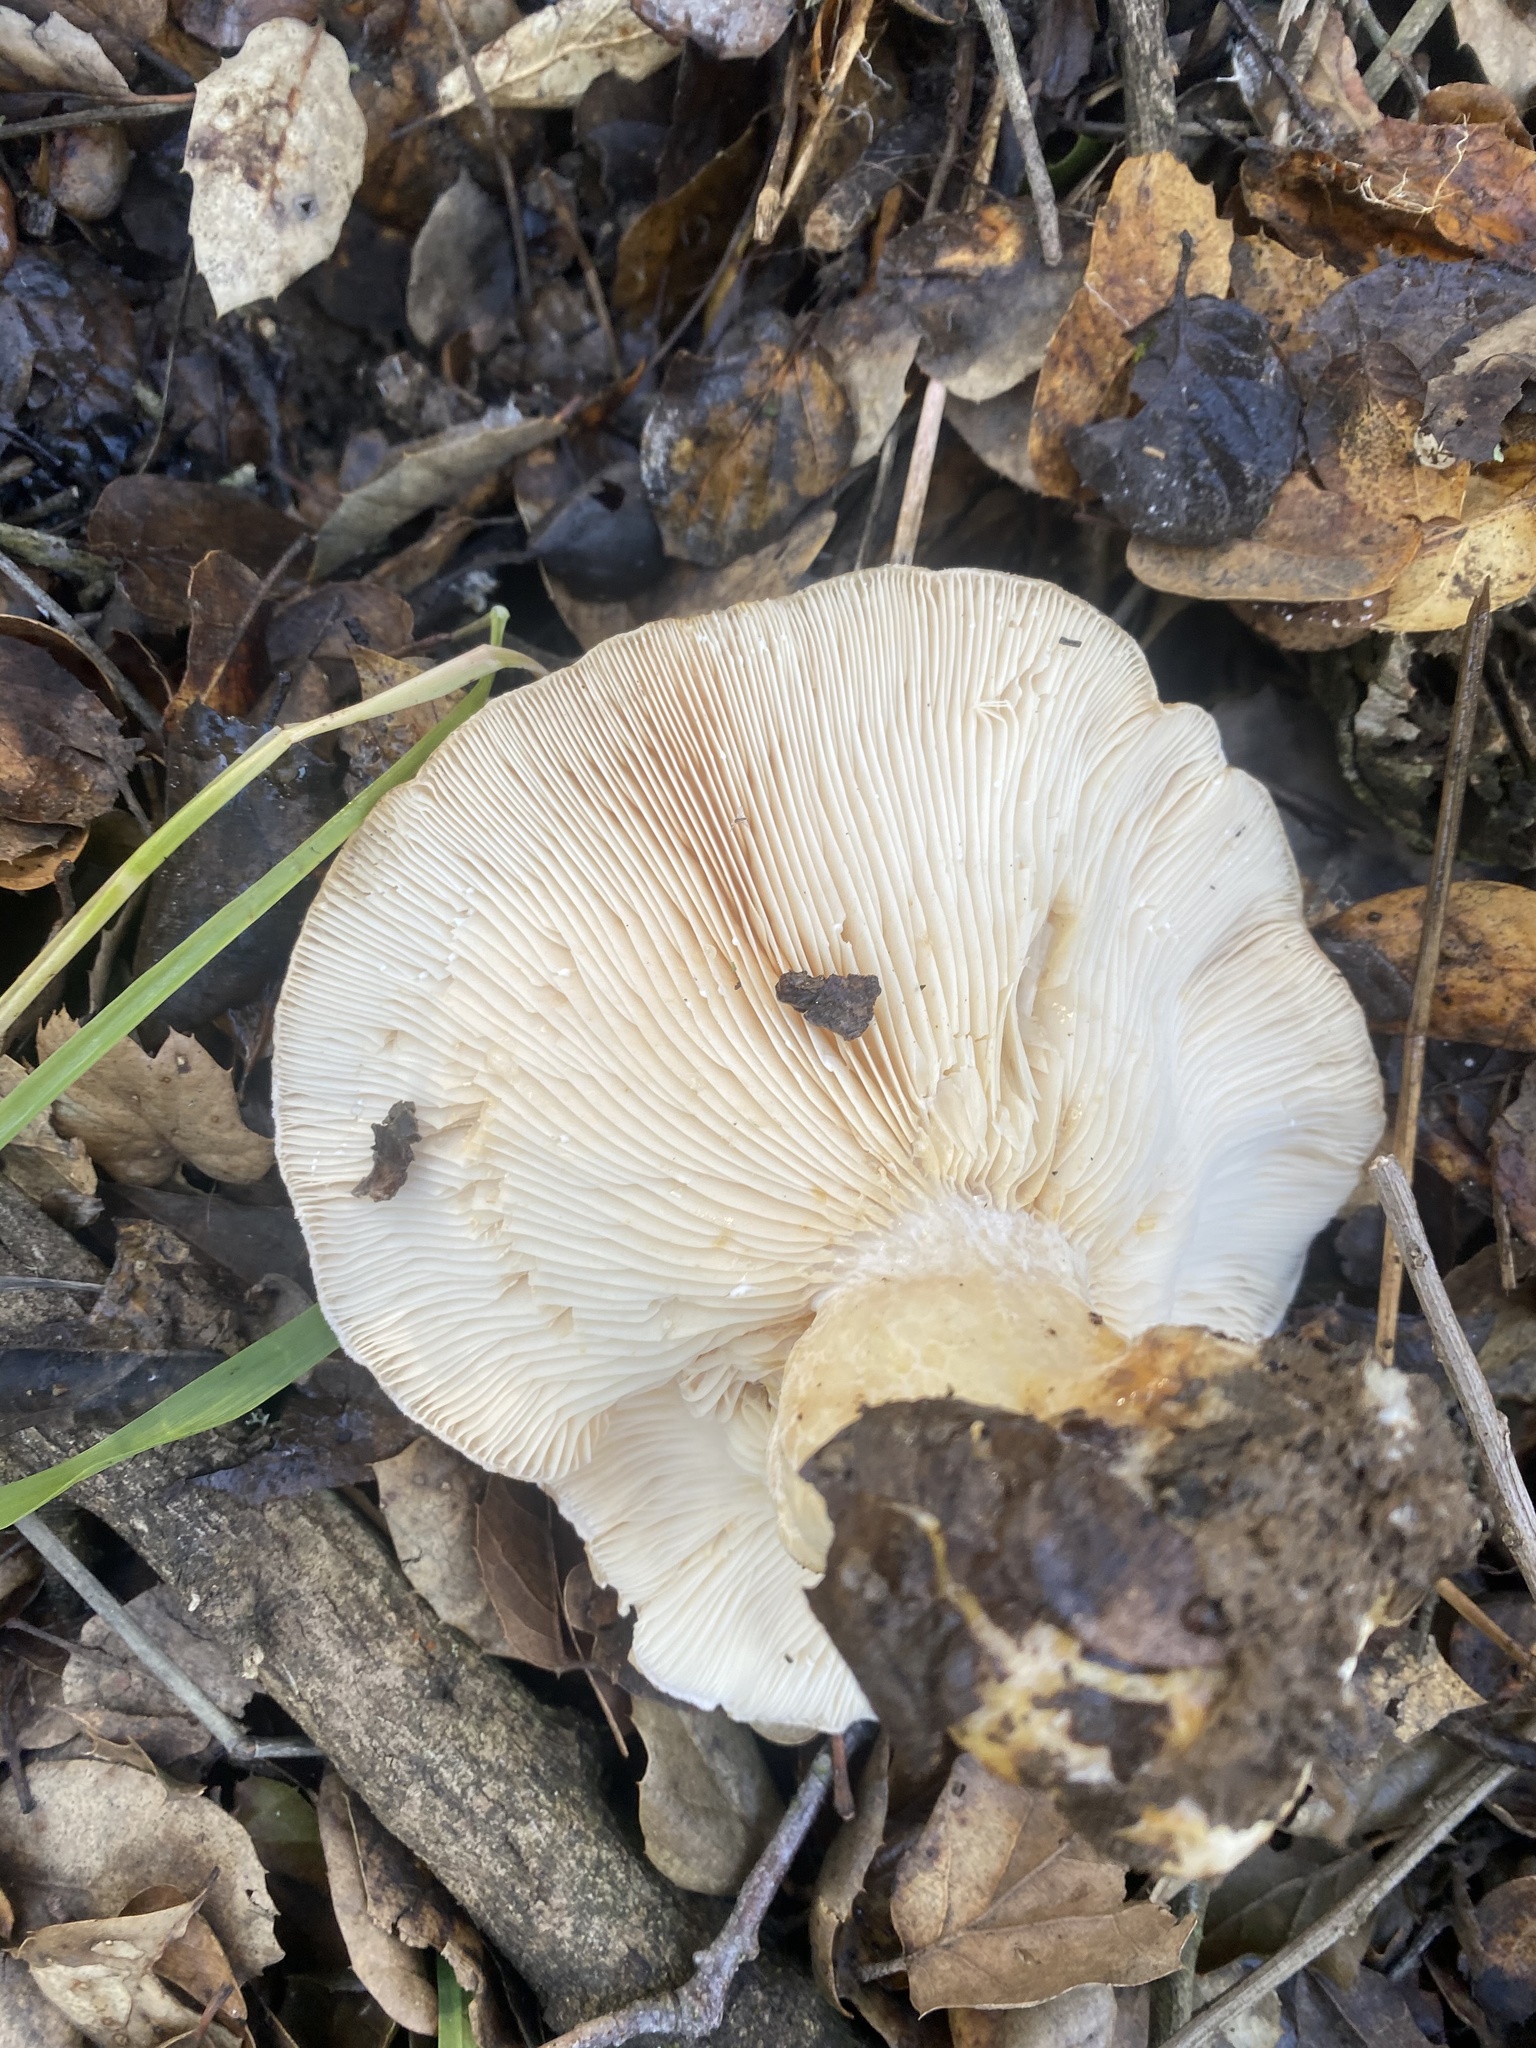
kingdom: Fungi
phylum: Basidiomycota
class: Agaricomycetes
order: Russulales
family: Russulaceae
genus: Lactarius
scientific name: Lactarius alnicola
